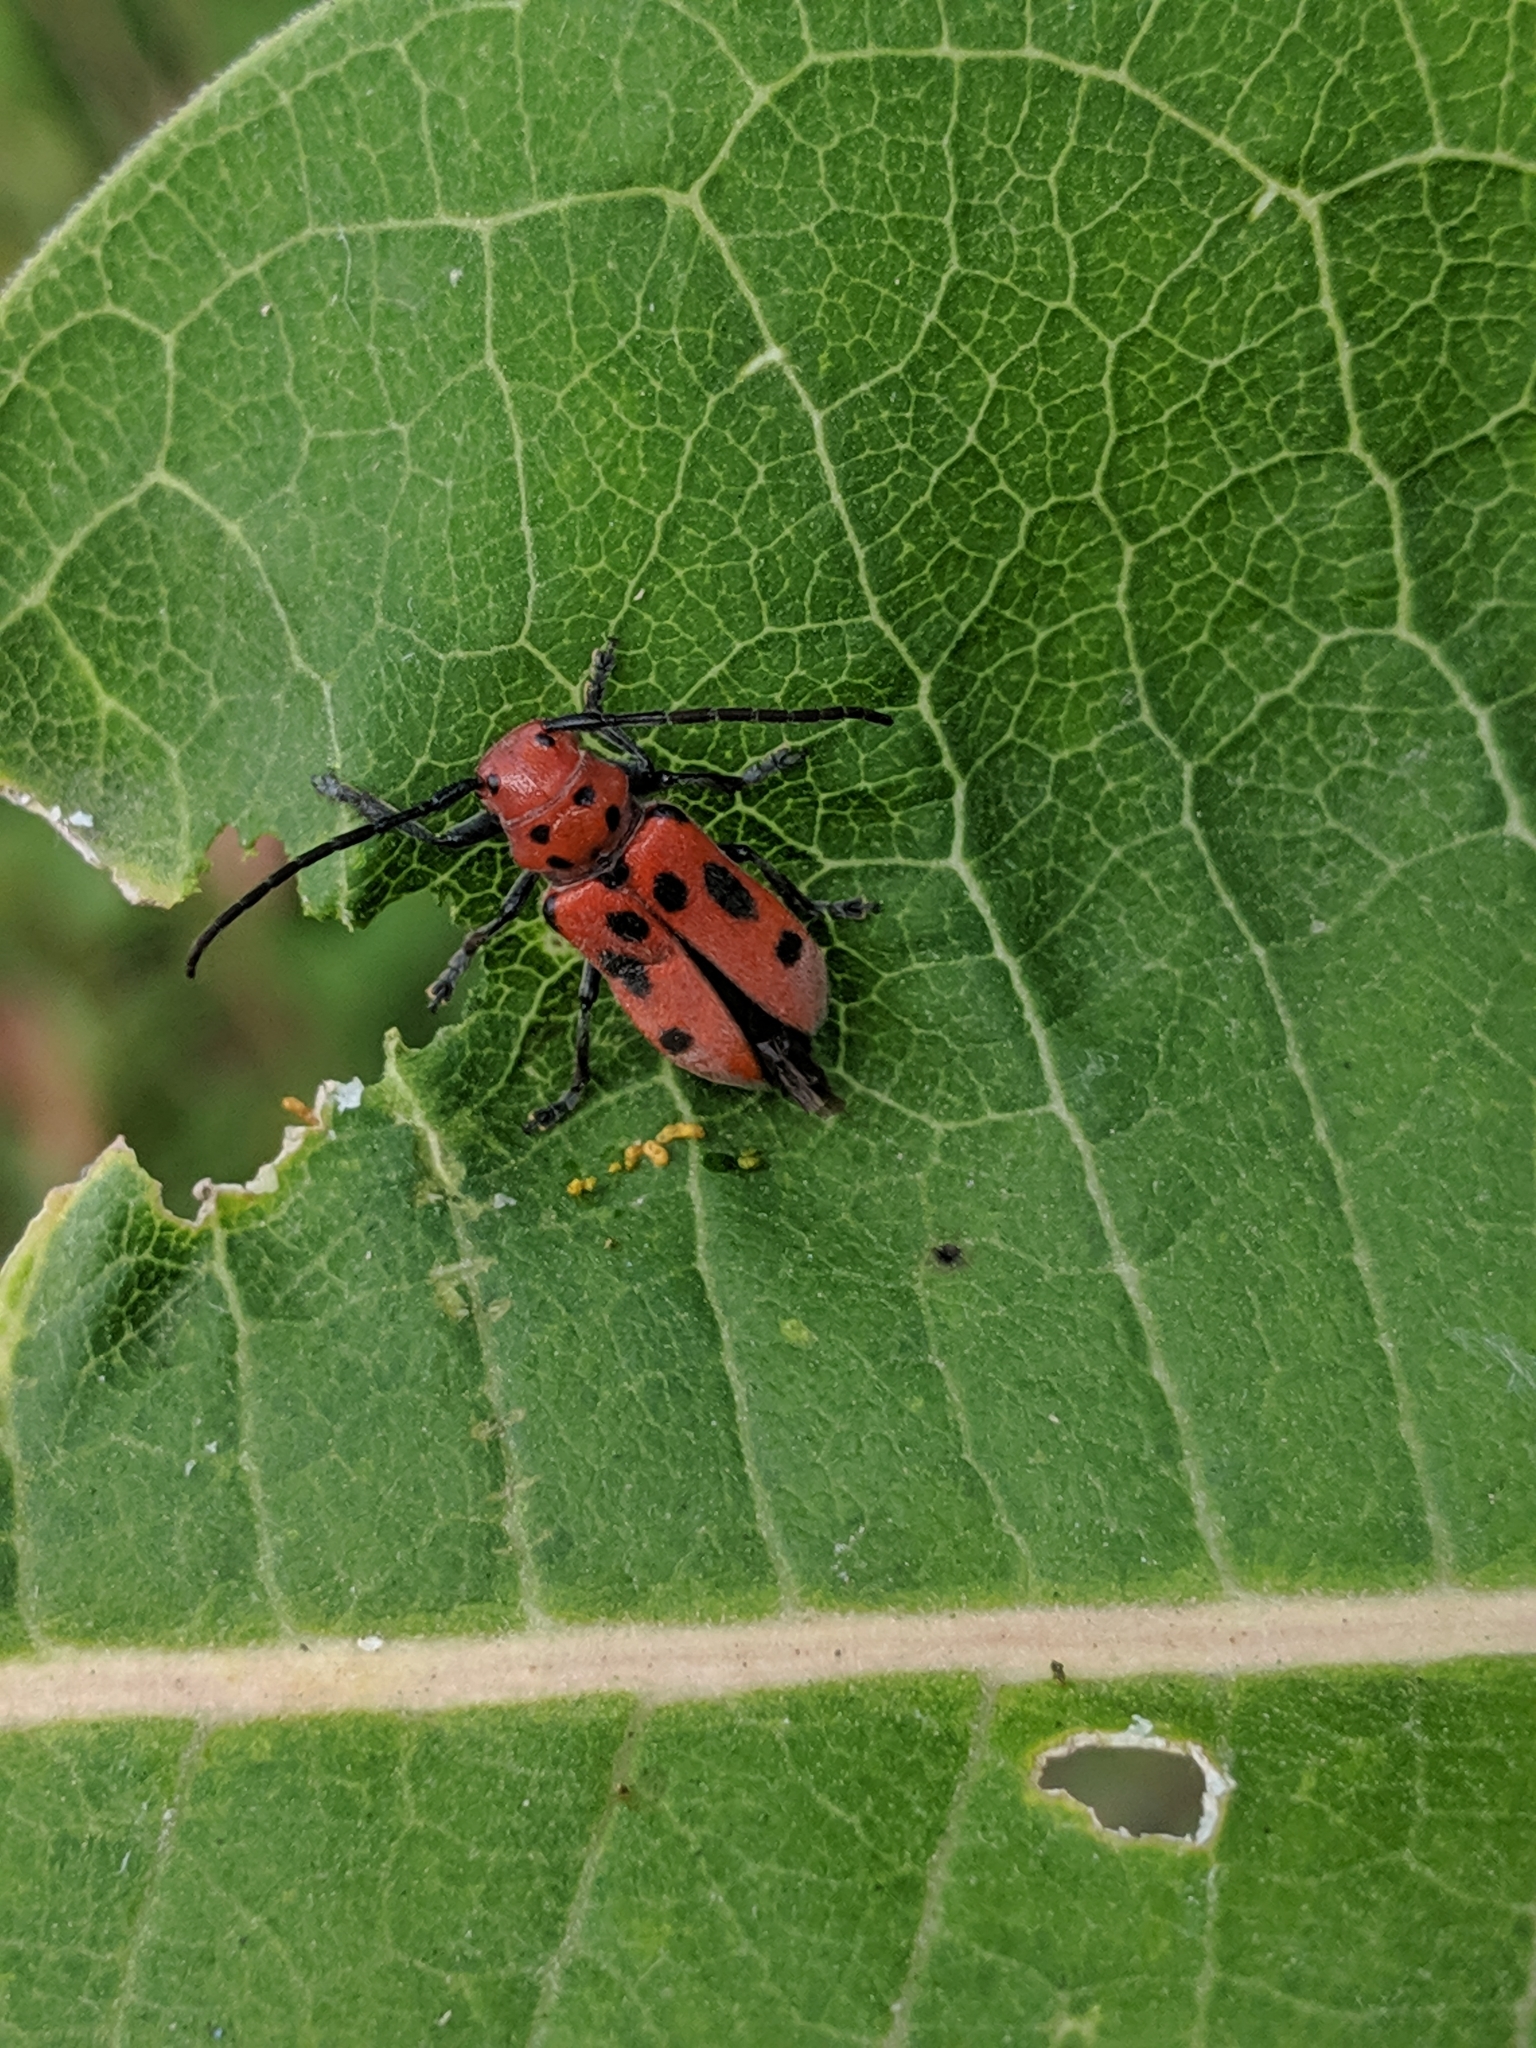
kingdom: Animalia
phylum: Arthropoda
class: Insecta
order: Coleoptera
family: Cerambycidae
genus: Tetraopes
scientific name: Tetraopes tetrophthalmus
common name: Red milkweed beetle
